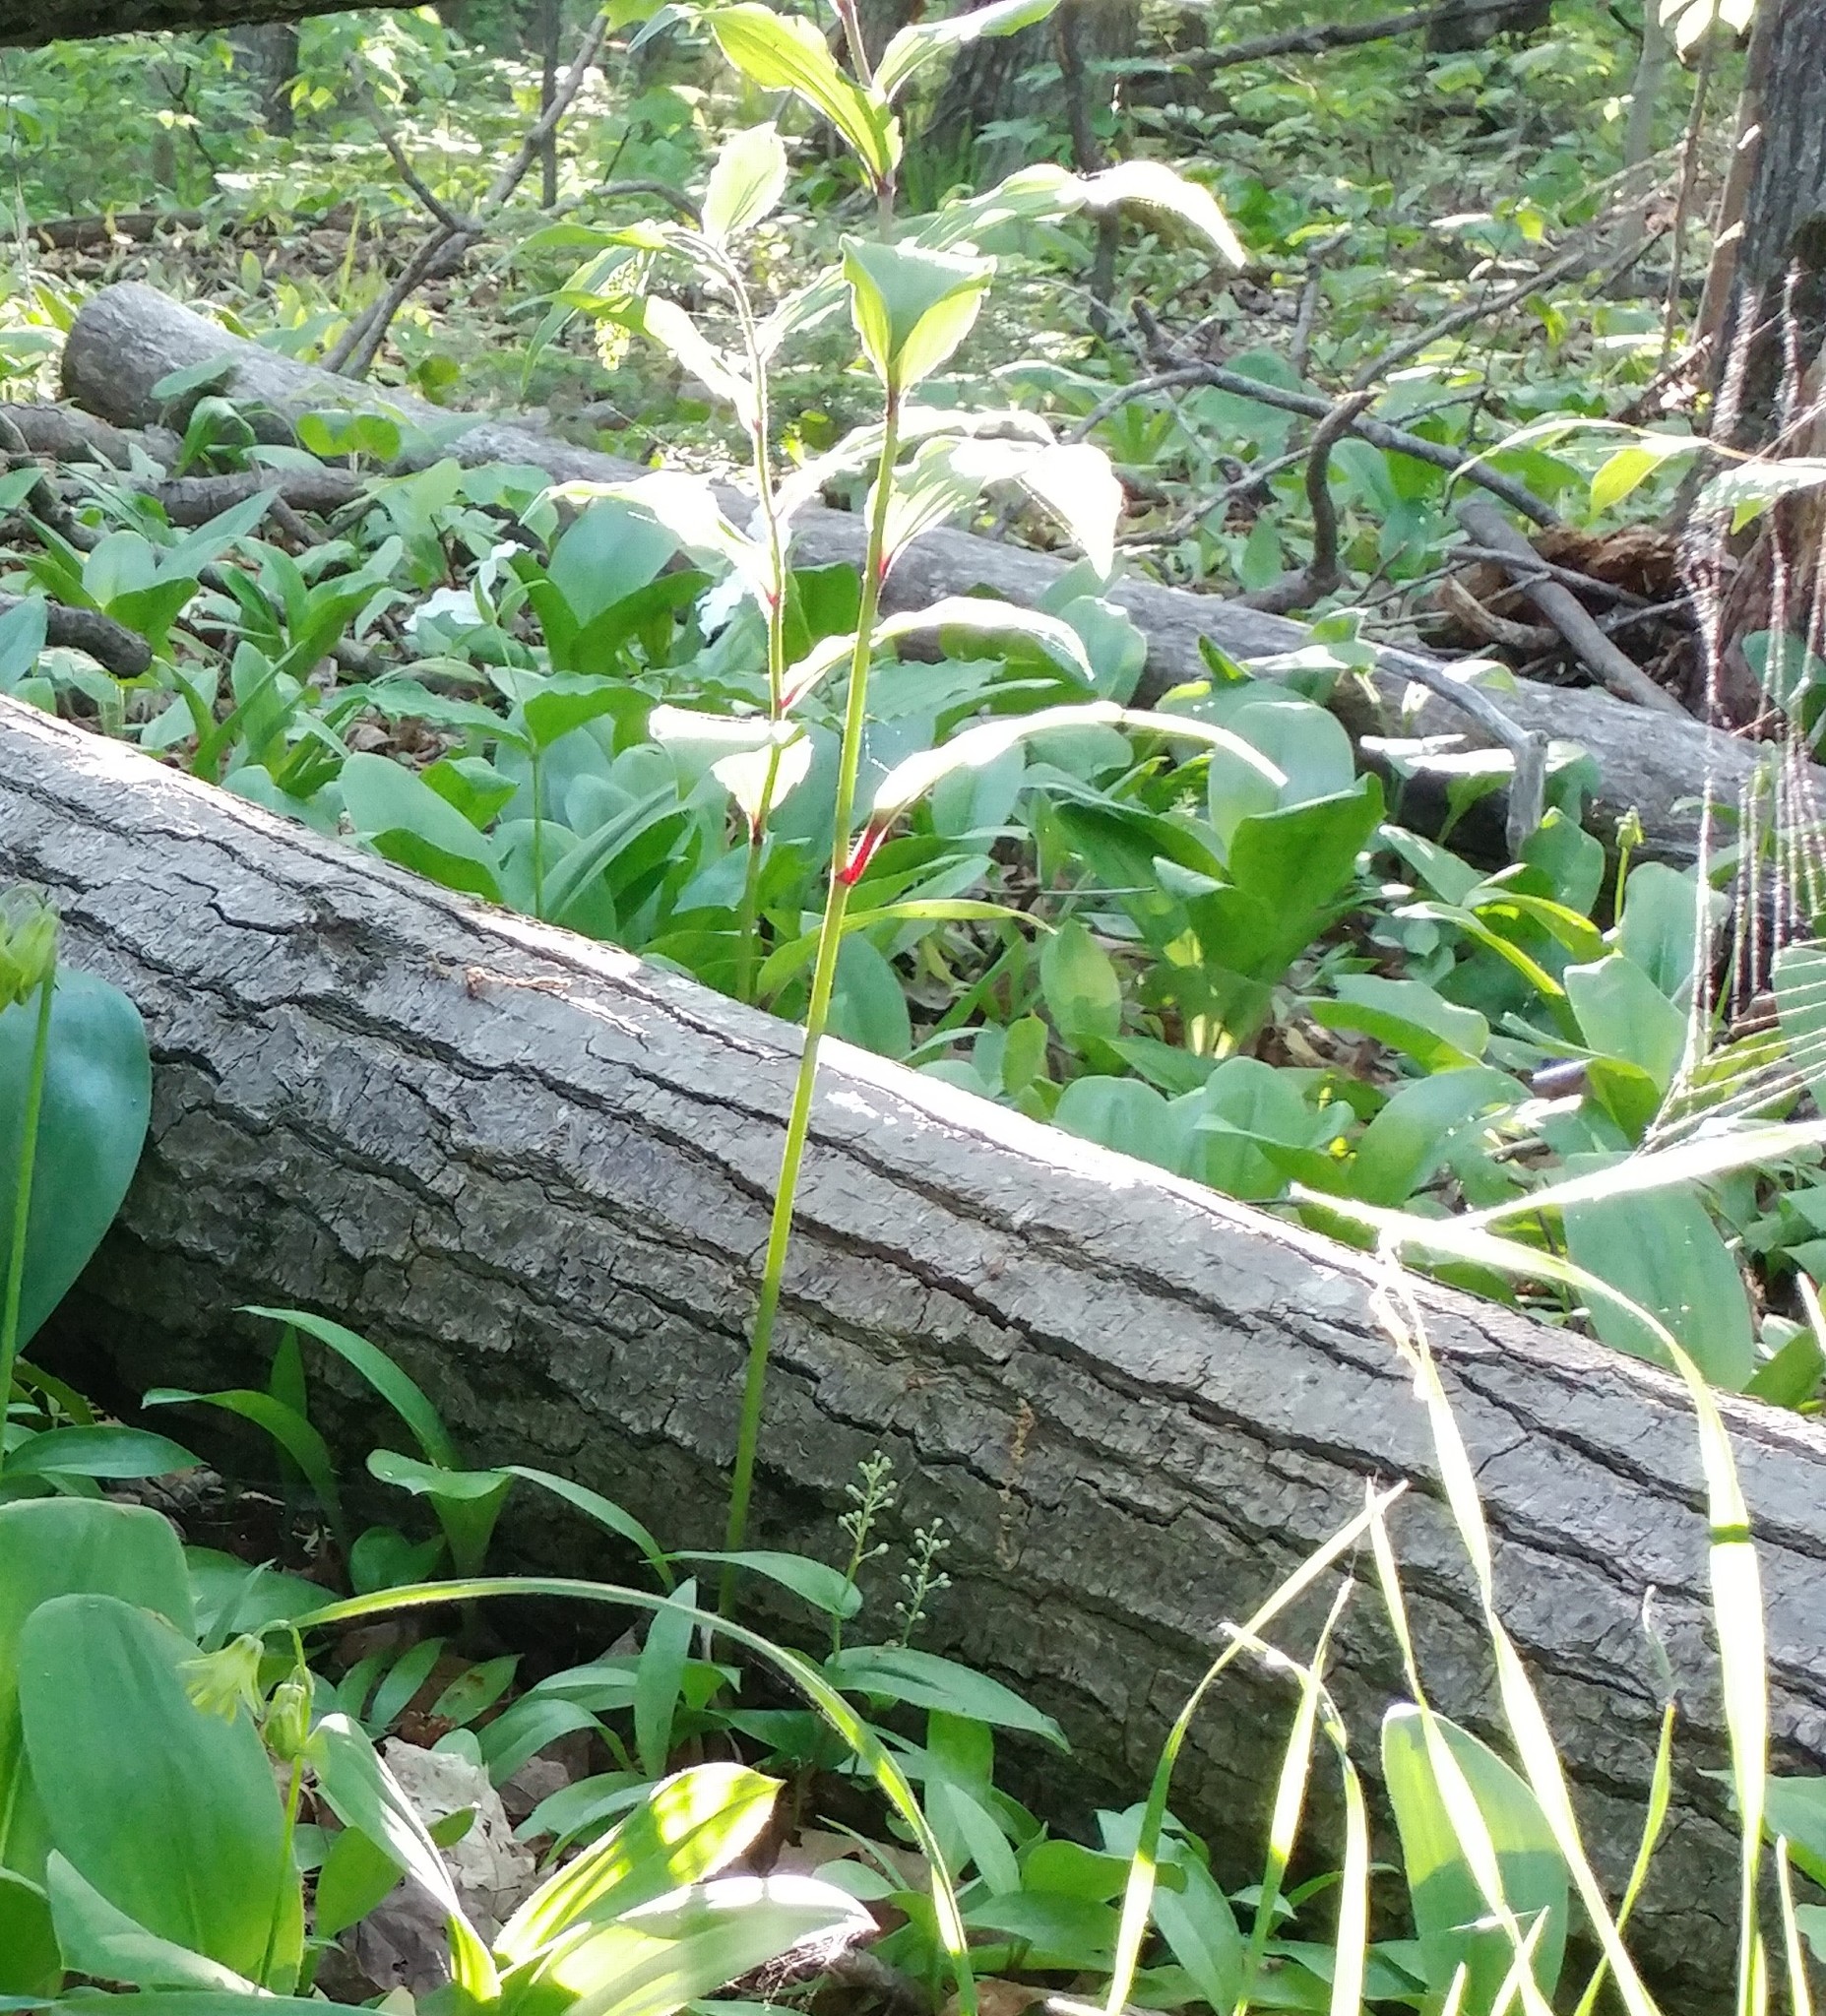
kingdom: Plantae
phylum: Tracheophyta
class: Liliopsida
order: Asparagales
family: Asparagaceae
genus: Maianthemum
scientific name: Maianthemum racemosum
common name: False spikenard
